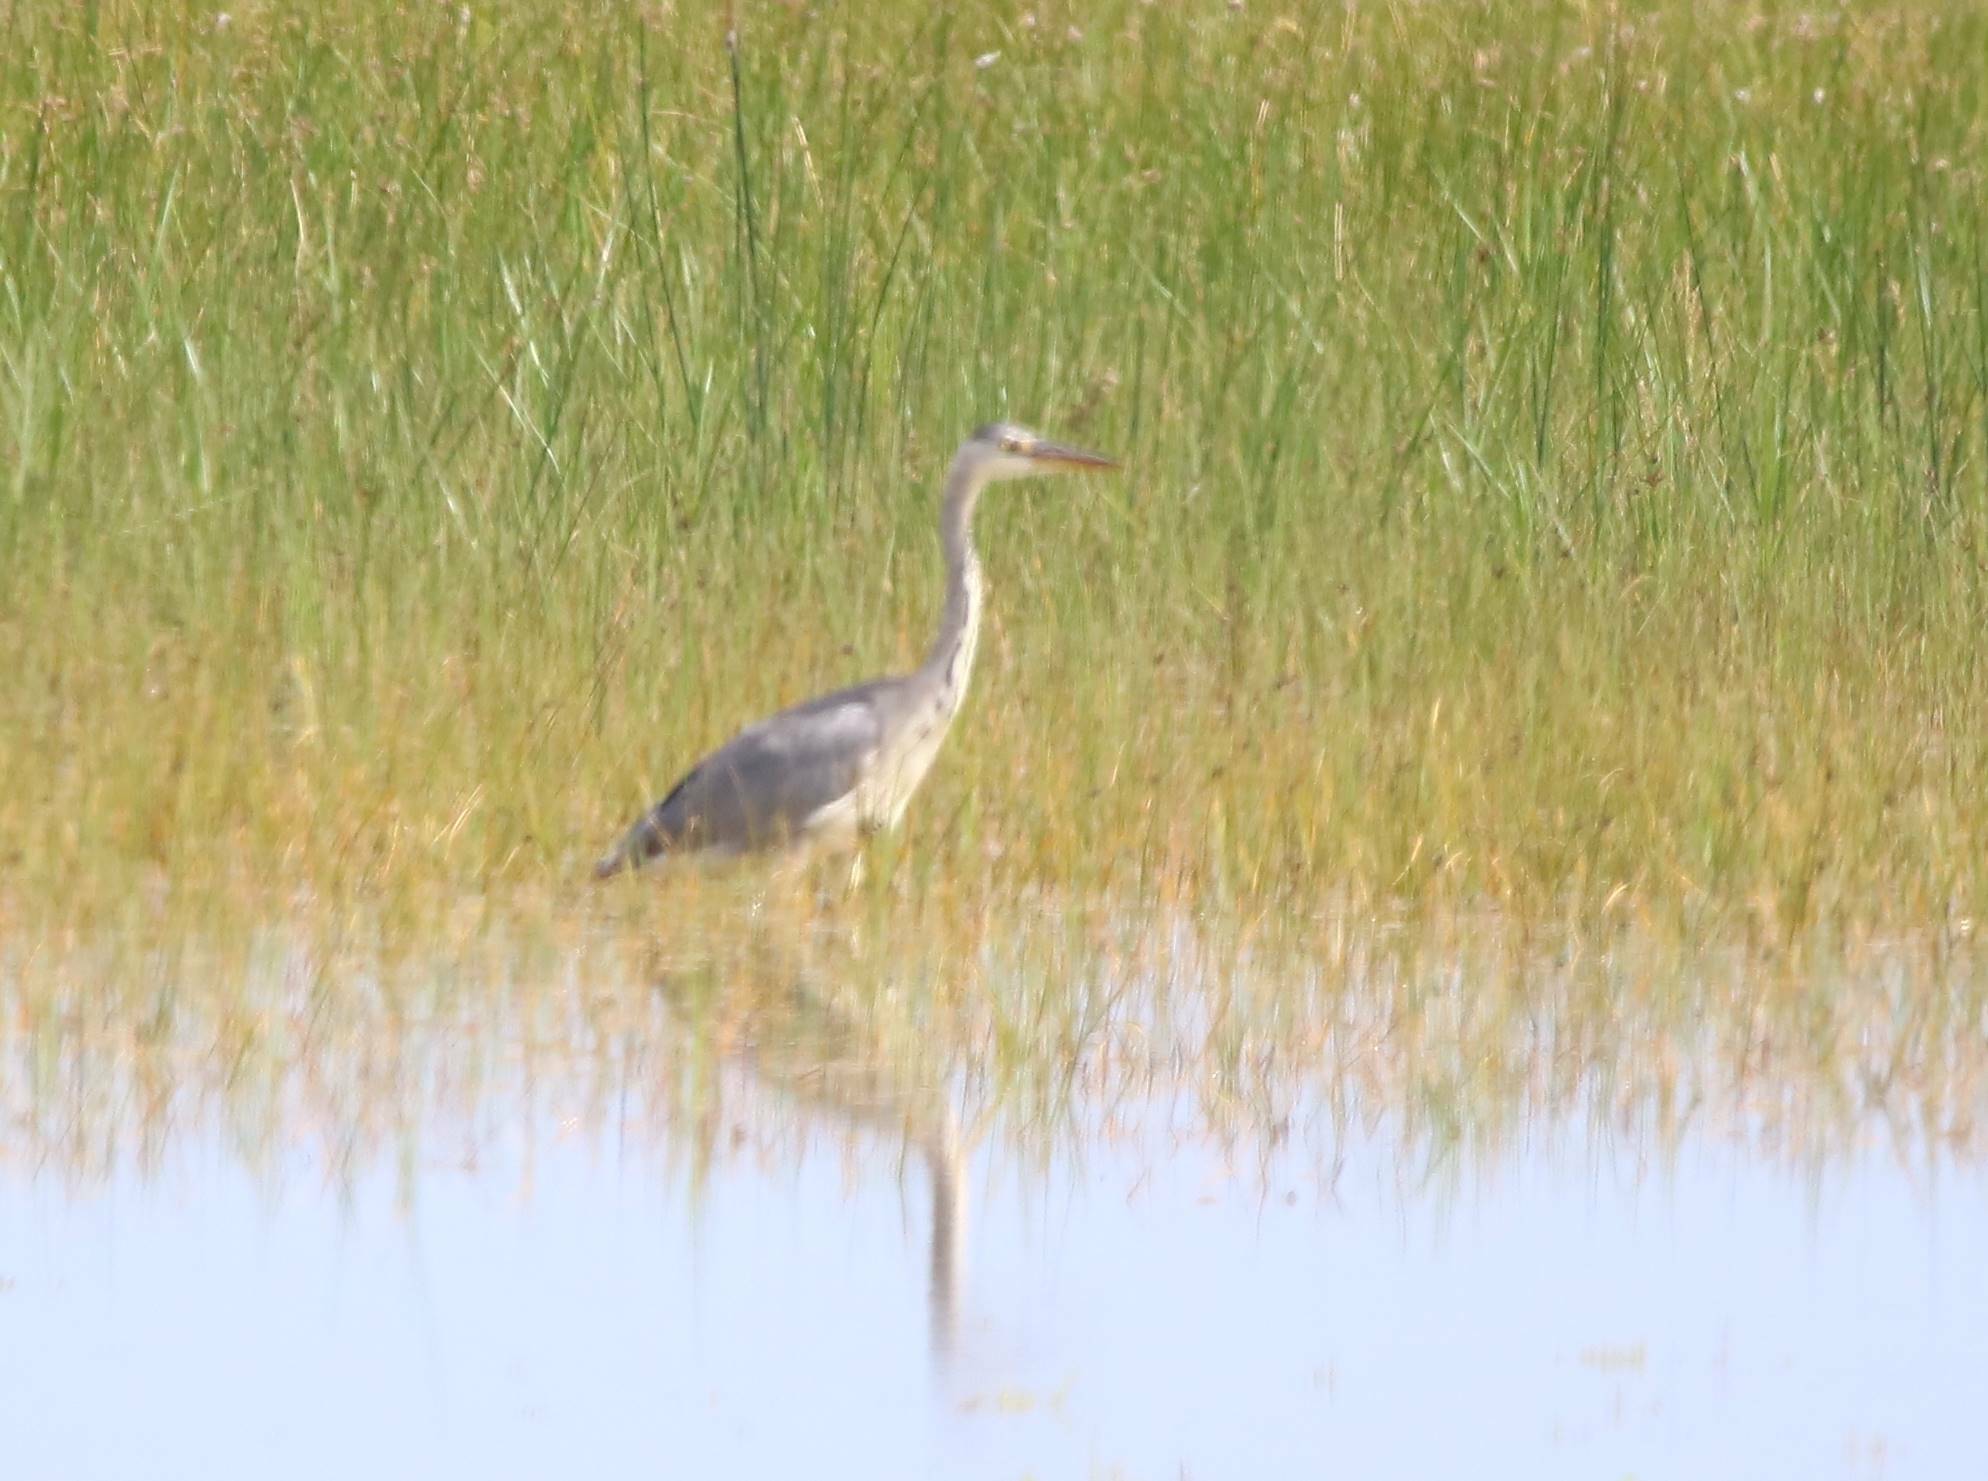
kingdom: Animalia
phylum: Chordata
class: Aves
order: Pelecaniformes
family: Ardeidae
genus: Ardea
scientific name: Ardea cinerea
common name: Grey heron
